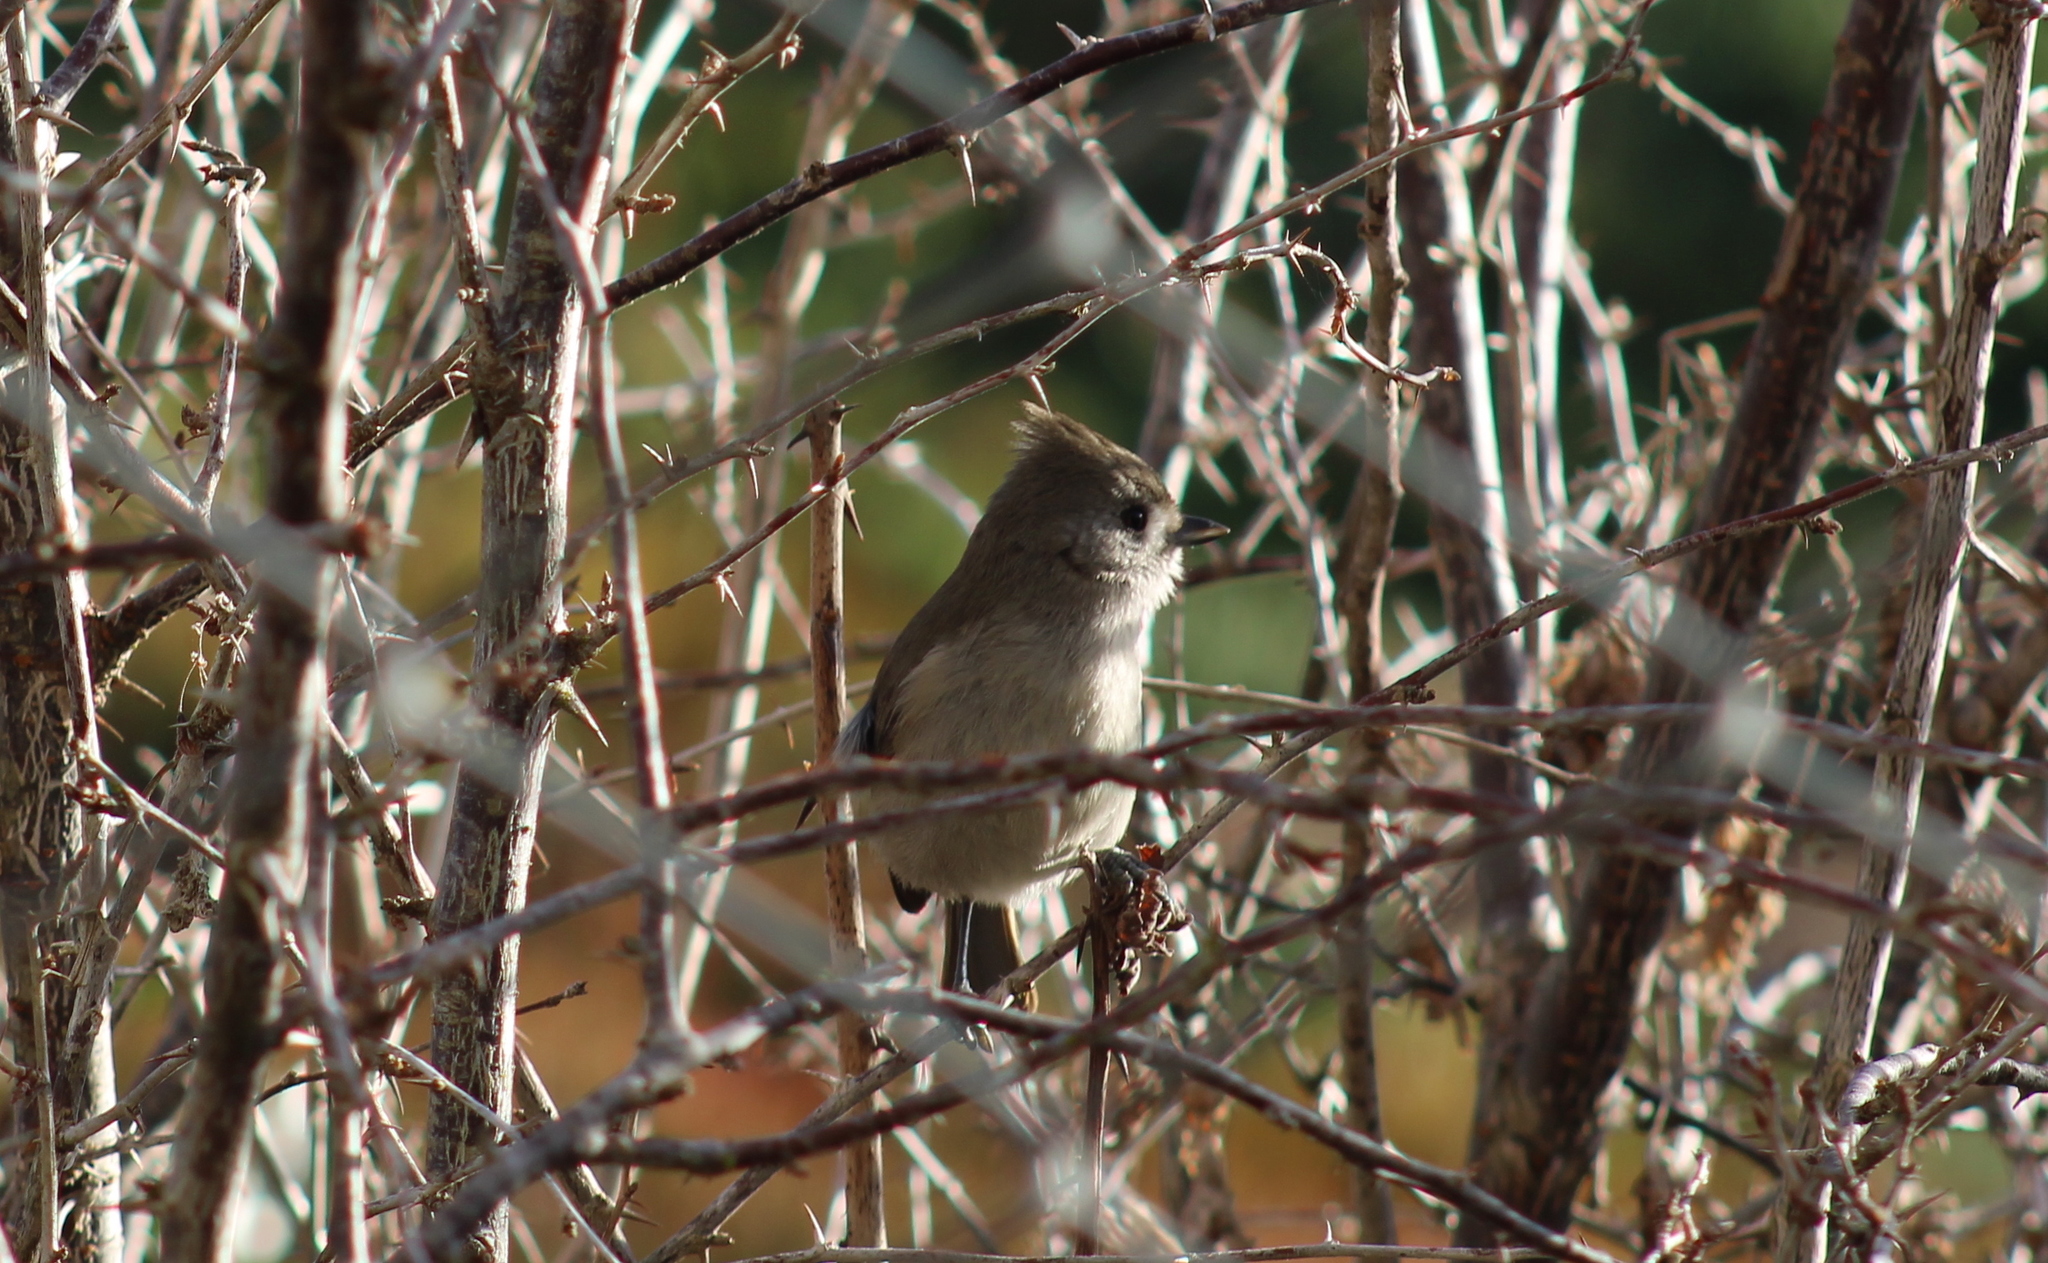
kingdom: Animalia
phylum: Chordata
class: Aves
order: Passeriformes
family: Paridae
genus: Baeolophus
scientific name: Baeolophus inornatus
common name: Oak titmouse
